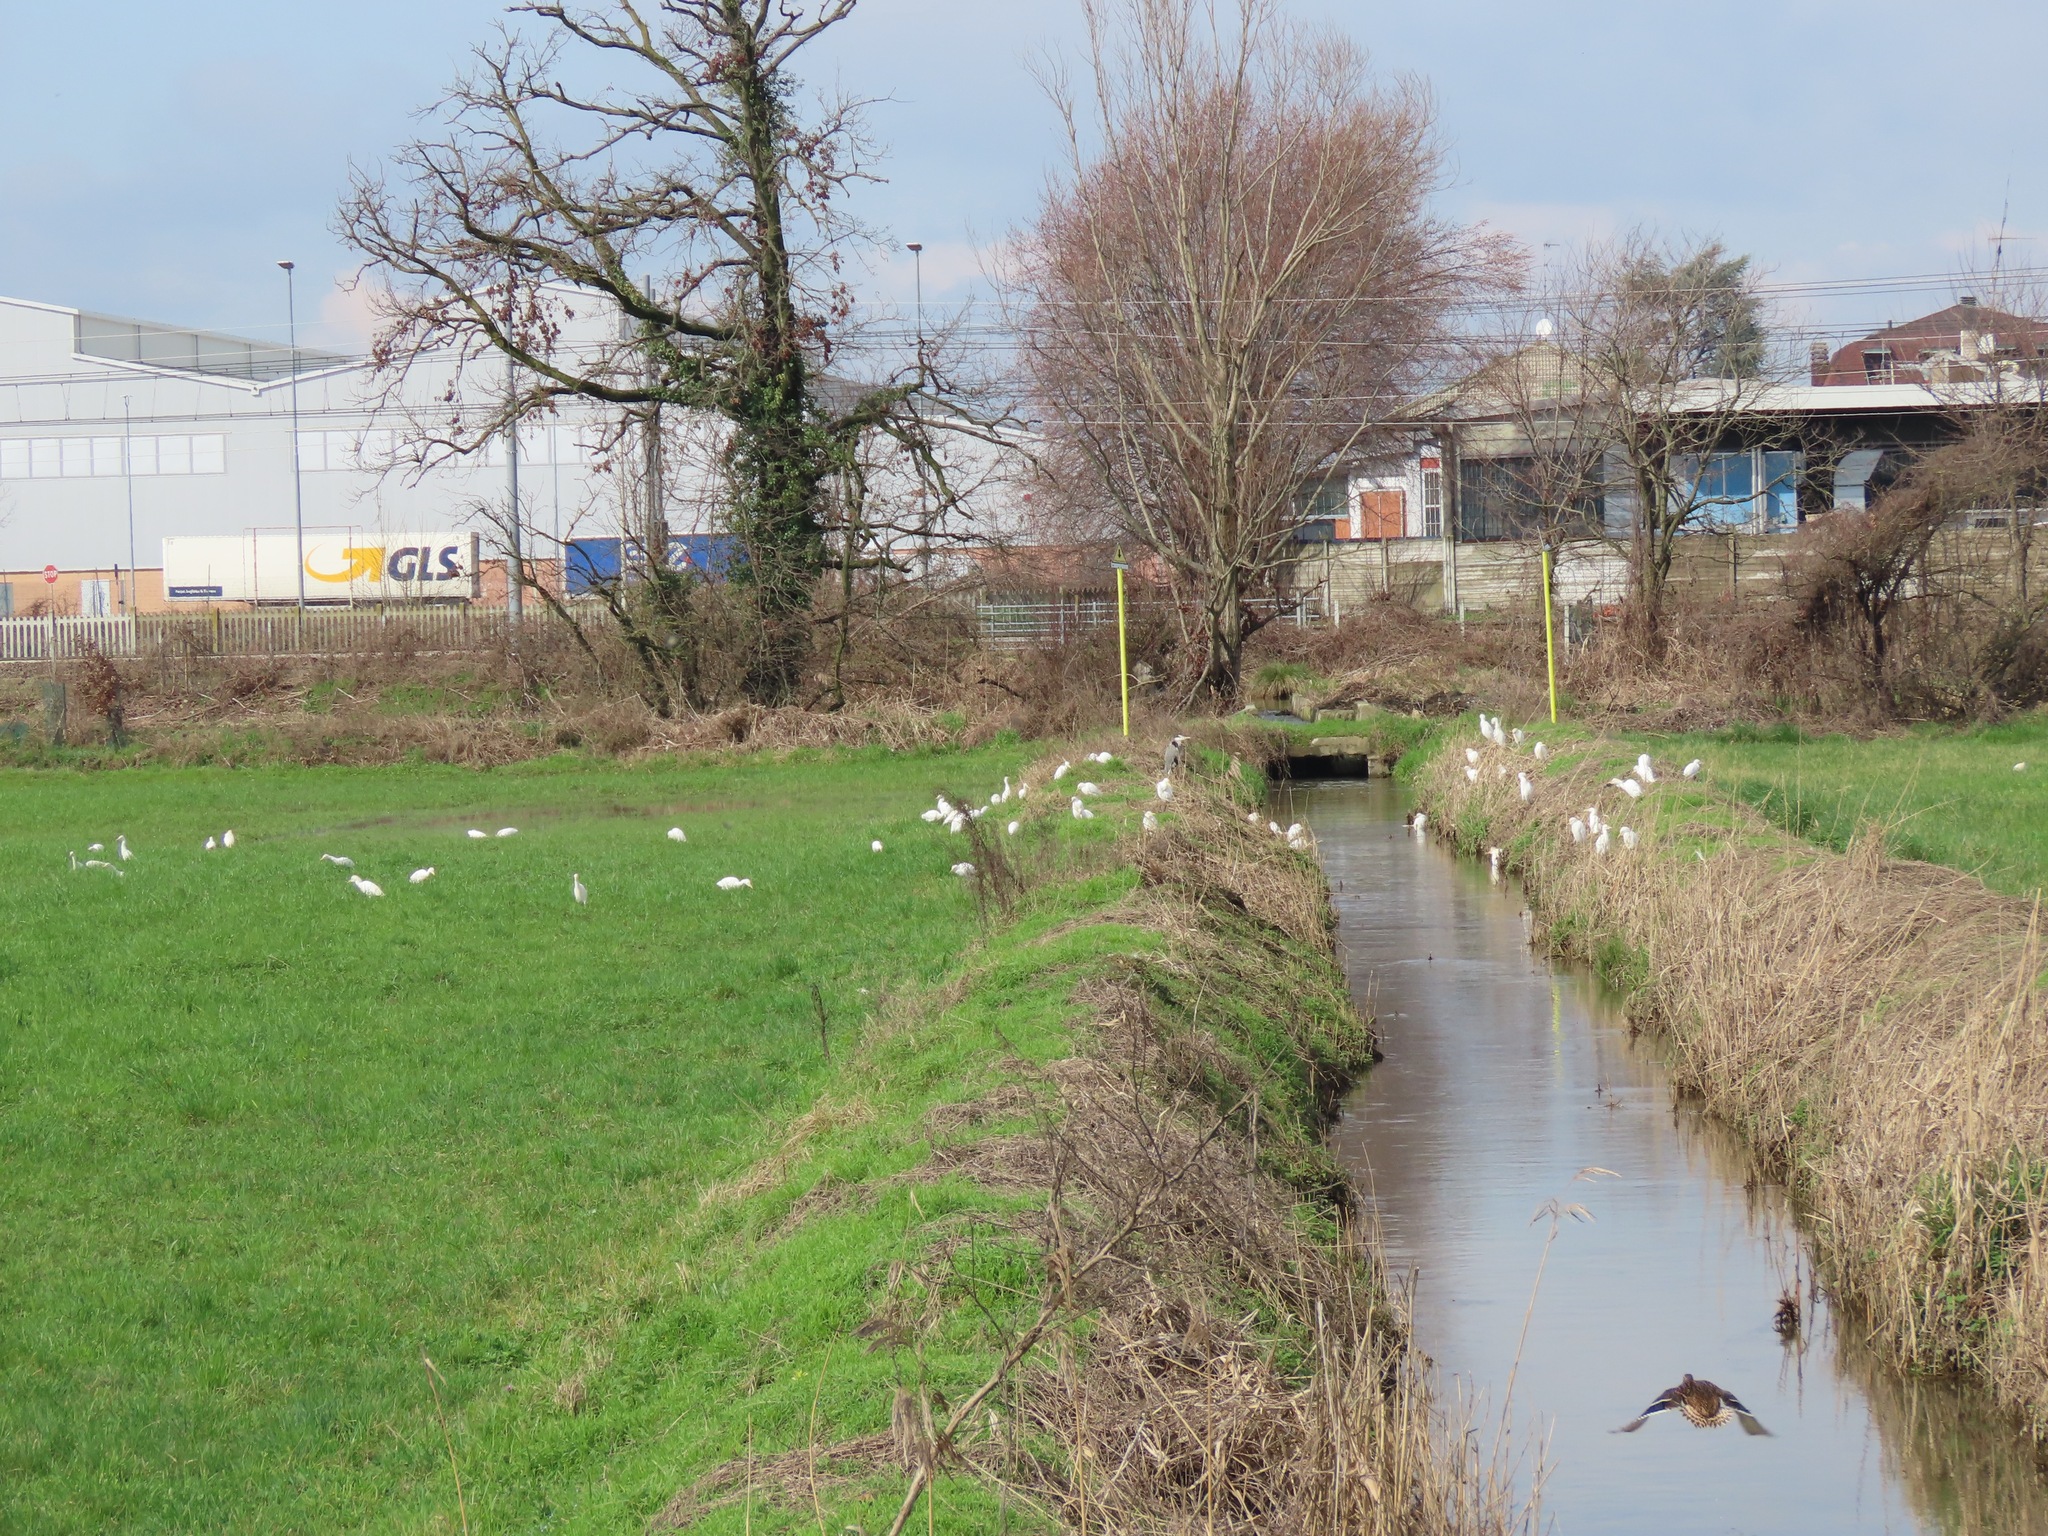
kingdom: Animalia
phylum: Chordata
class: Aves
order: Pelecaniformes
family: Ardeidae
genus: Bubulcus
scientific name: Bubulcus ibis
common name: Cattle egret
